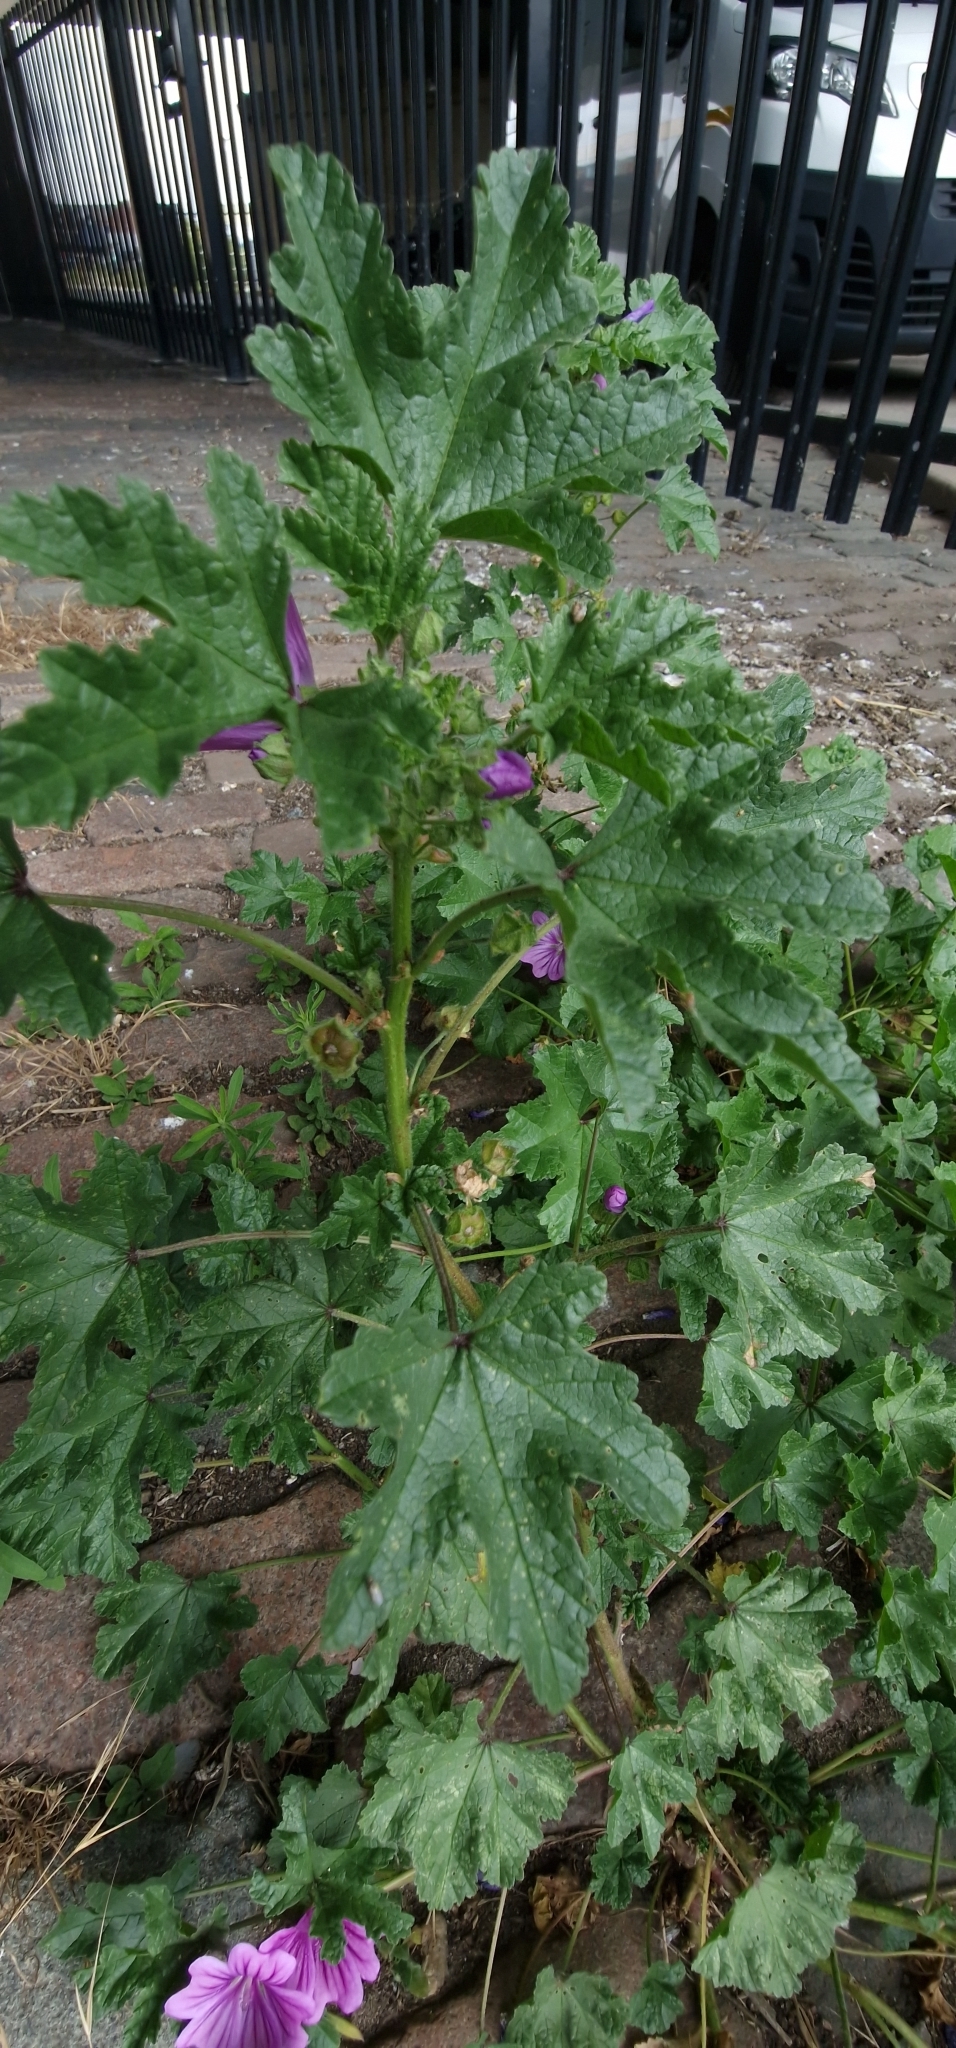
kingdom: Plantae
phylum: Tracheophyta
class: Magnoliopsida
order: Malvales
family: Malvaceae
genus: Malva
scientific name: Malva sylvestris
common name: Common mallow
